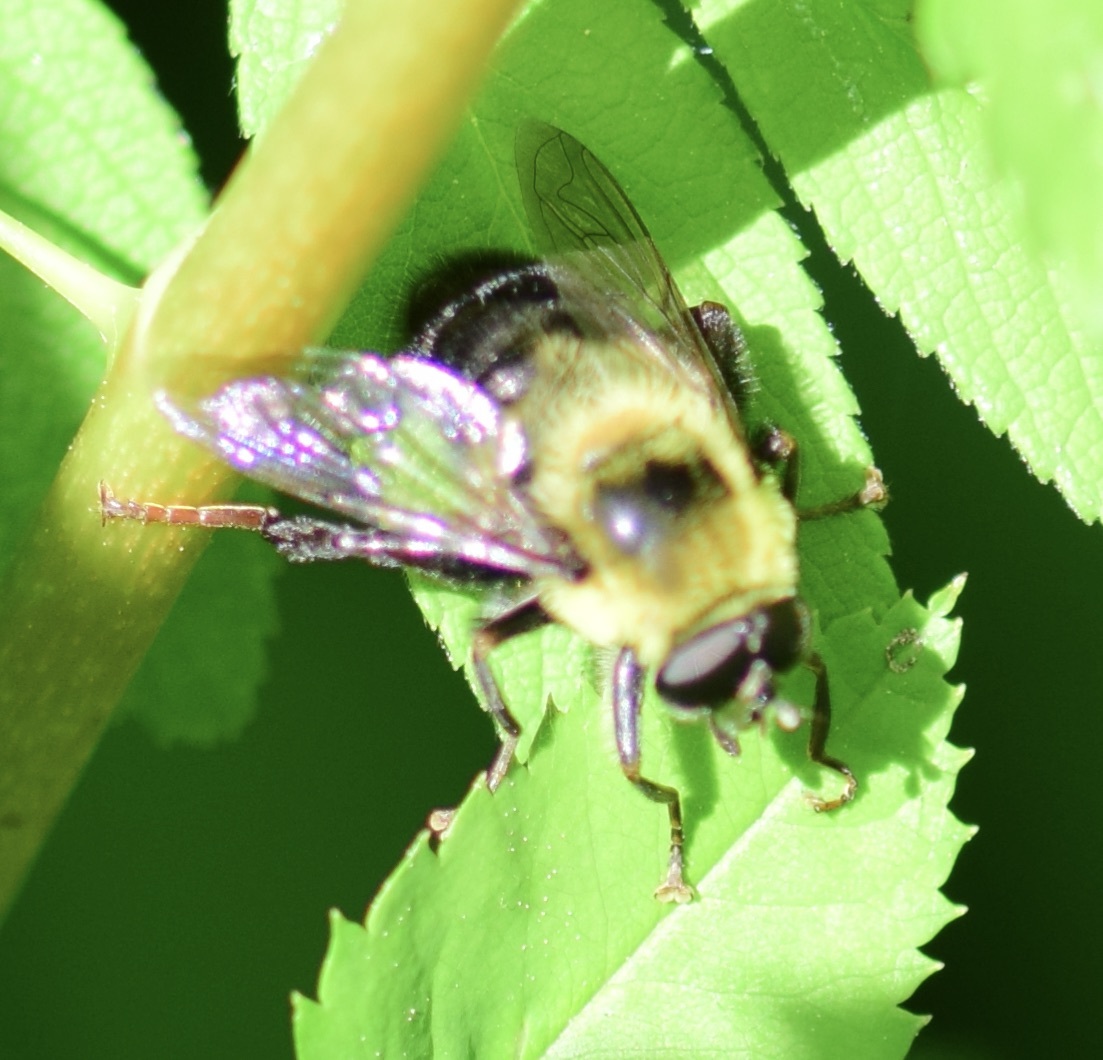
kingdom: Animalia
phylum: Arthropoda
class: Insecta
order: Diptera
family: Syrphidae
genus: Imatisma
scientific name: Imatisma posticata
